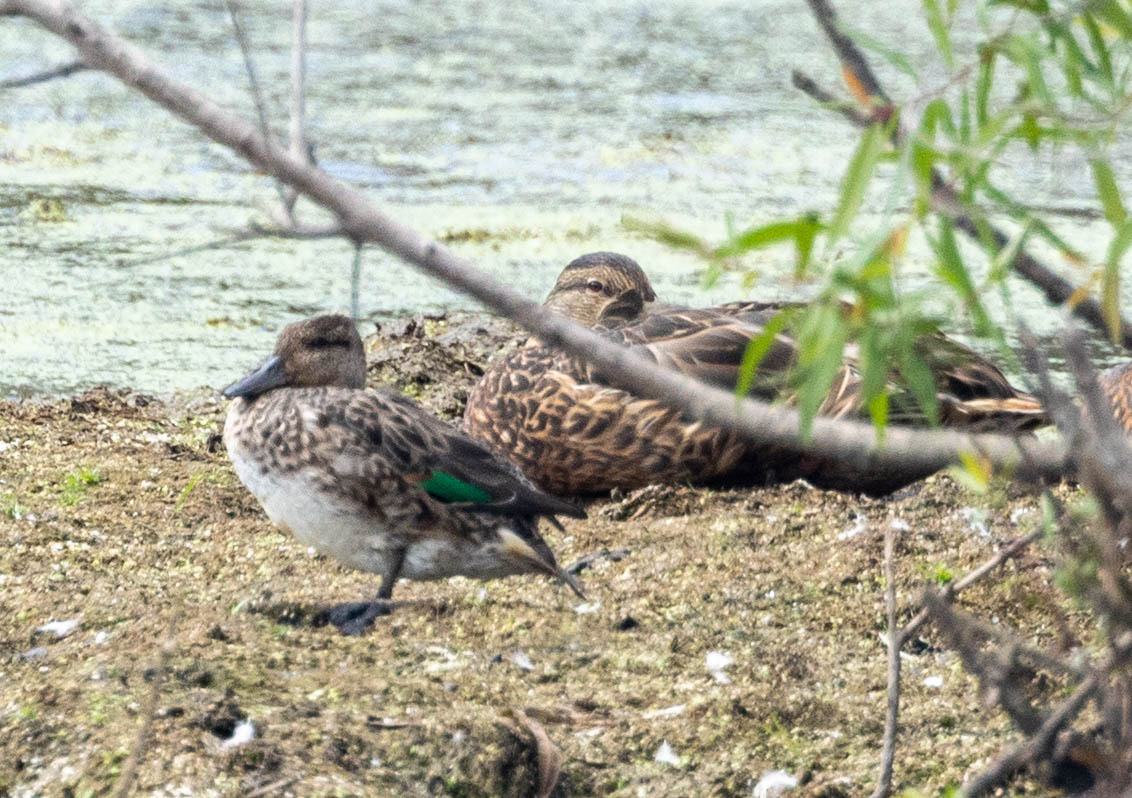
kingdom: Animalia
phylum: Chordata
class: Aves
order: Anseriformes
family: Anatidae
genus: Anas
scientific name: Anas crecca
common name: Eurasian teal
